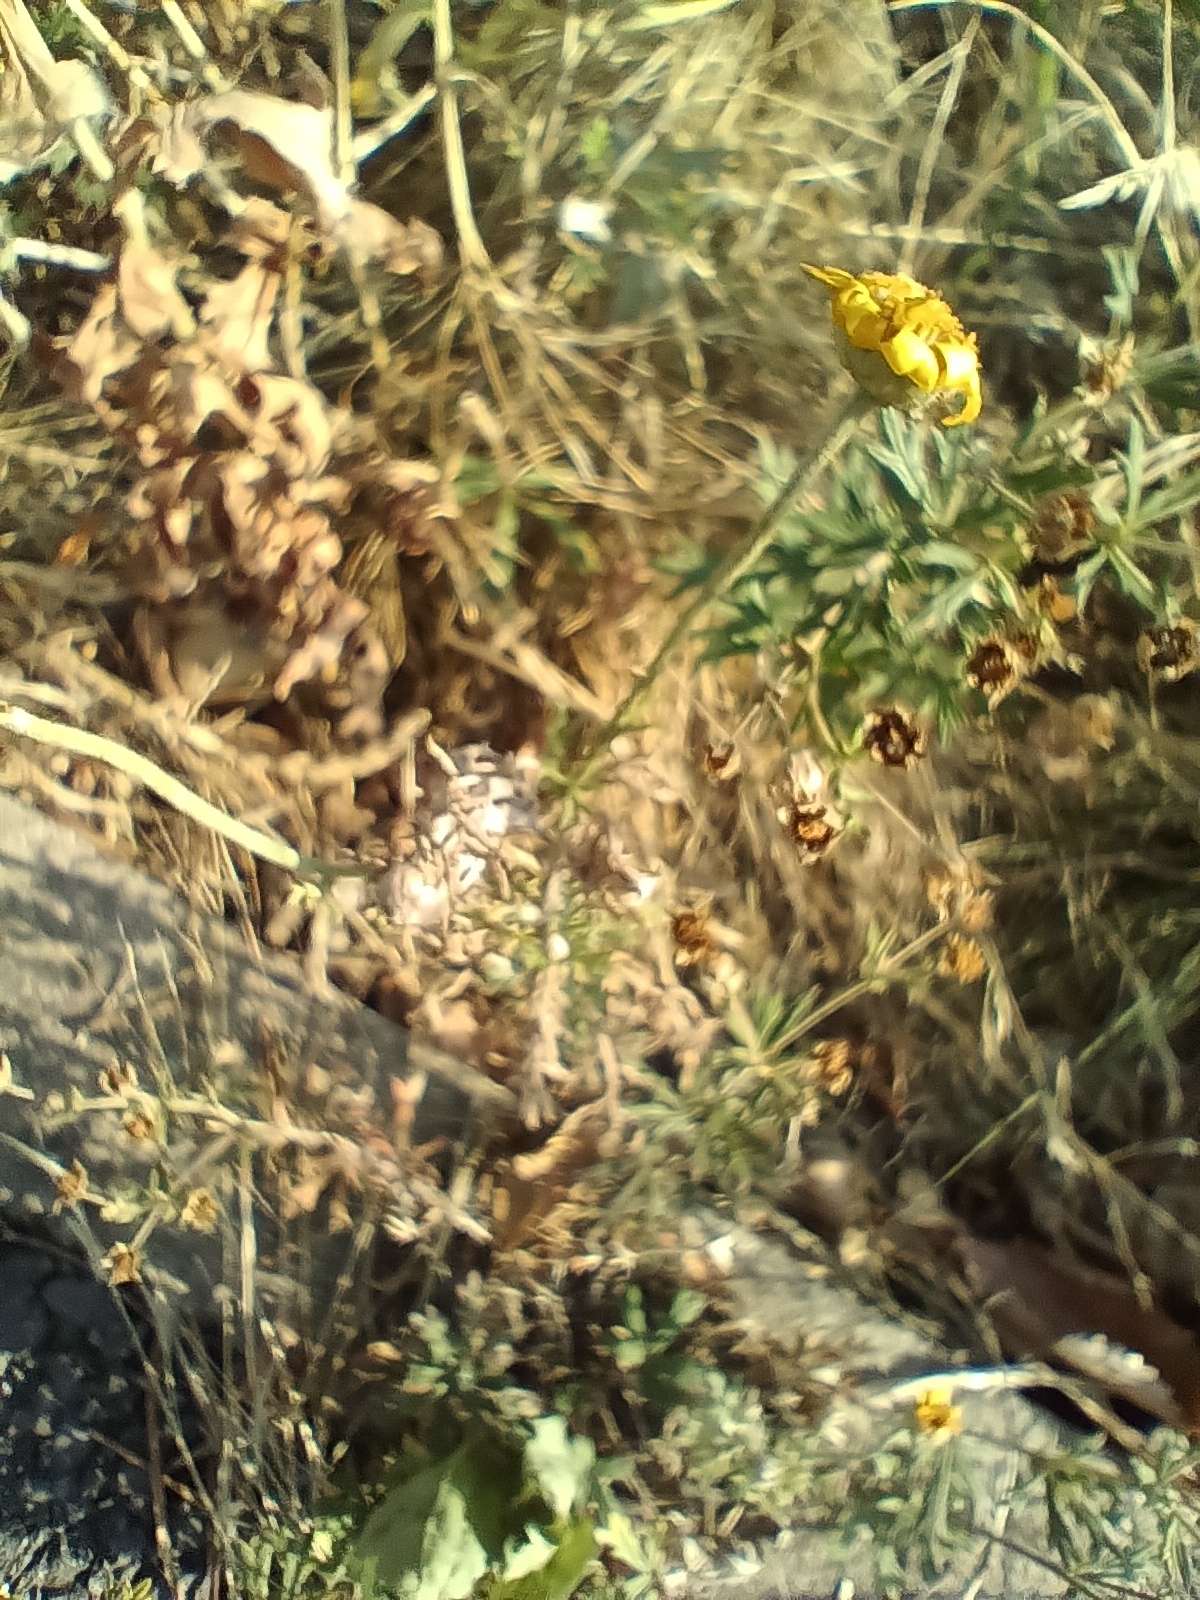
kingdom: Plantae
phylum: Tracheophyta
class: Magnoliopsida
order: Asterales
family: Asteraceae
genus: Cota
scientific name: Cota tinctoria
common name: Golden chamomile
